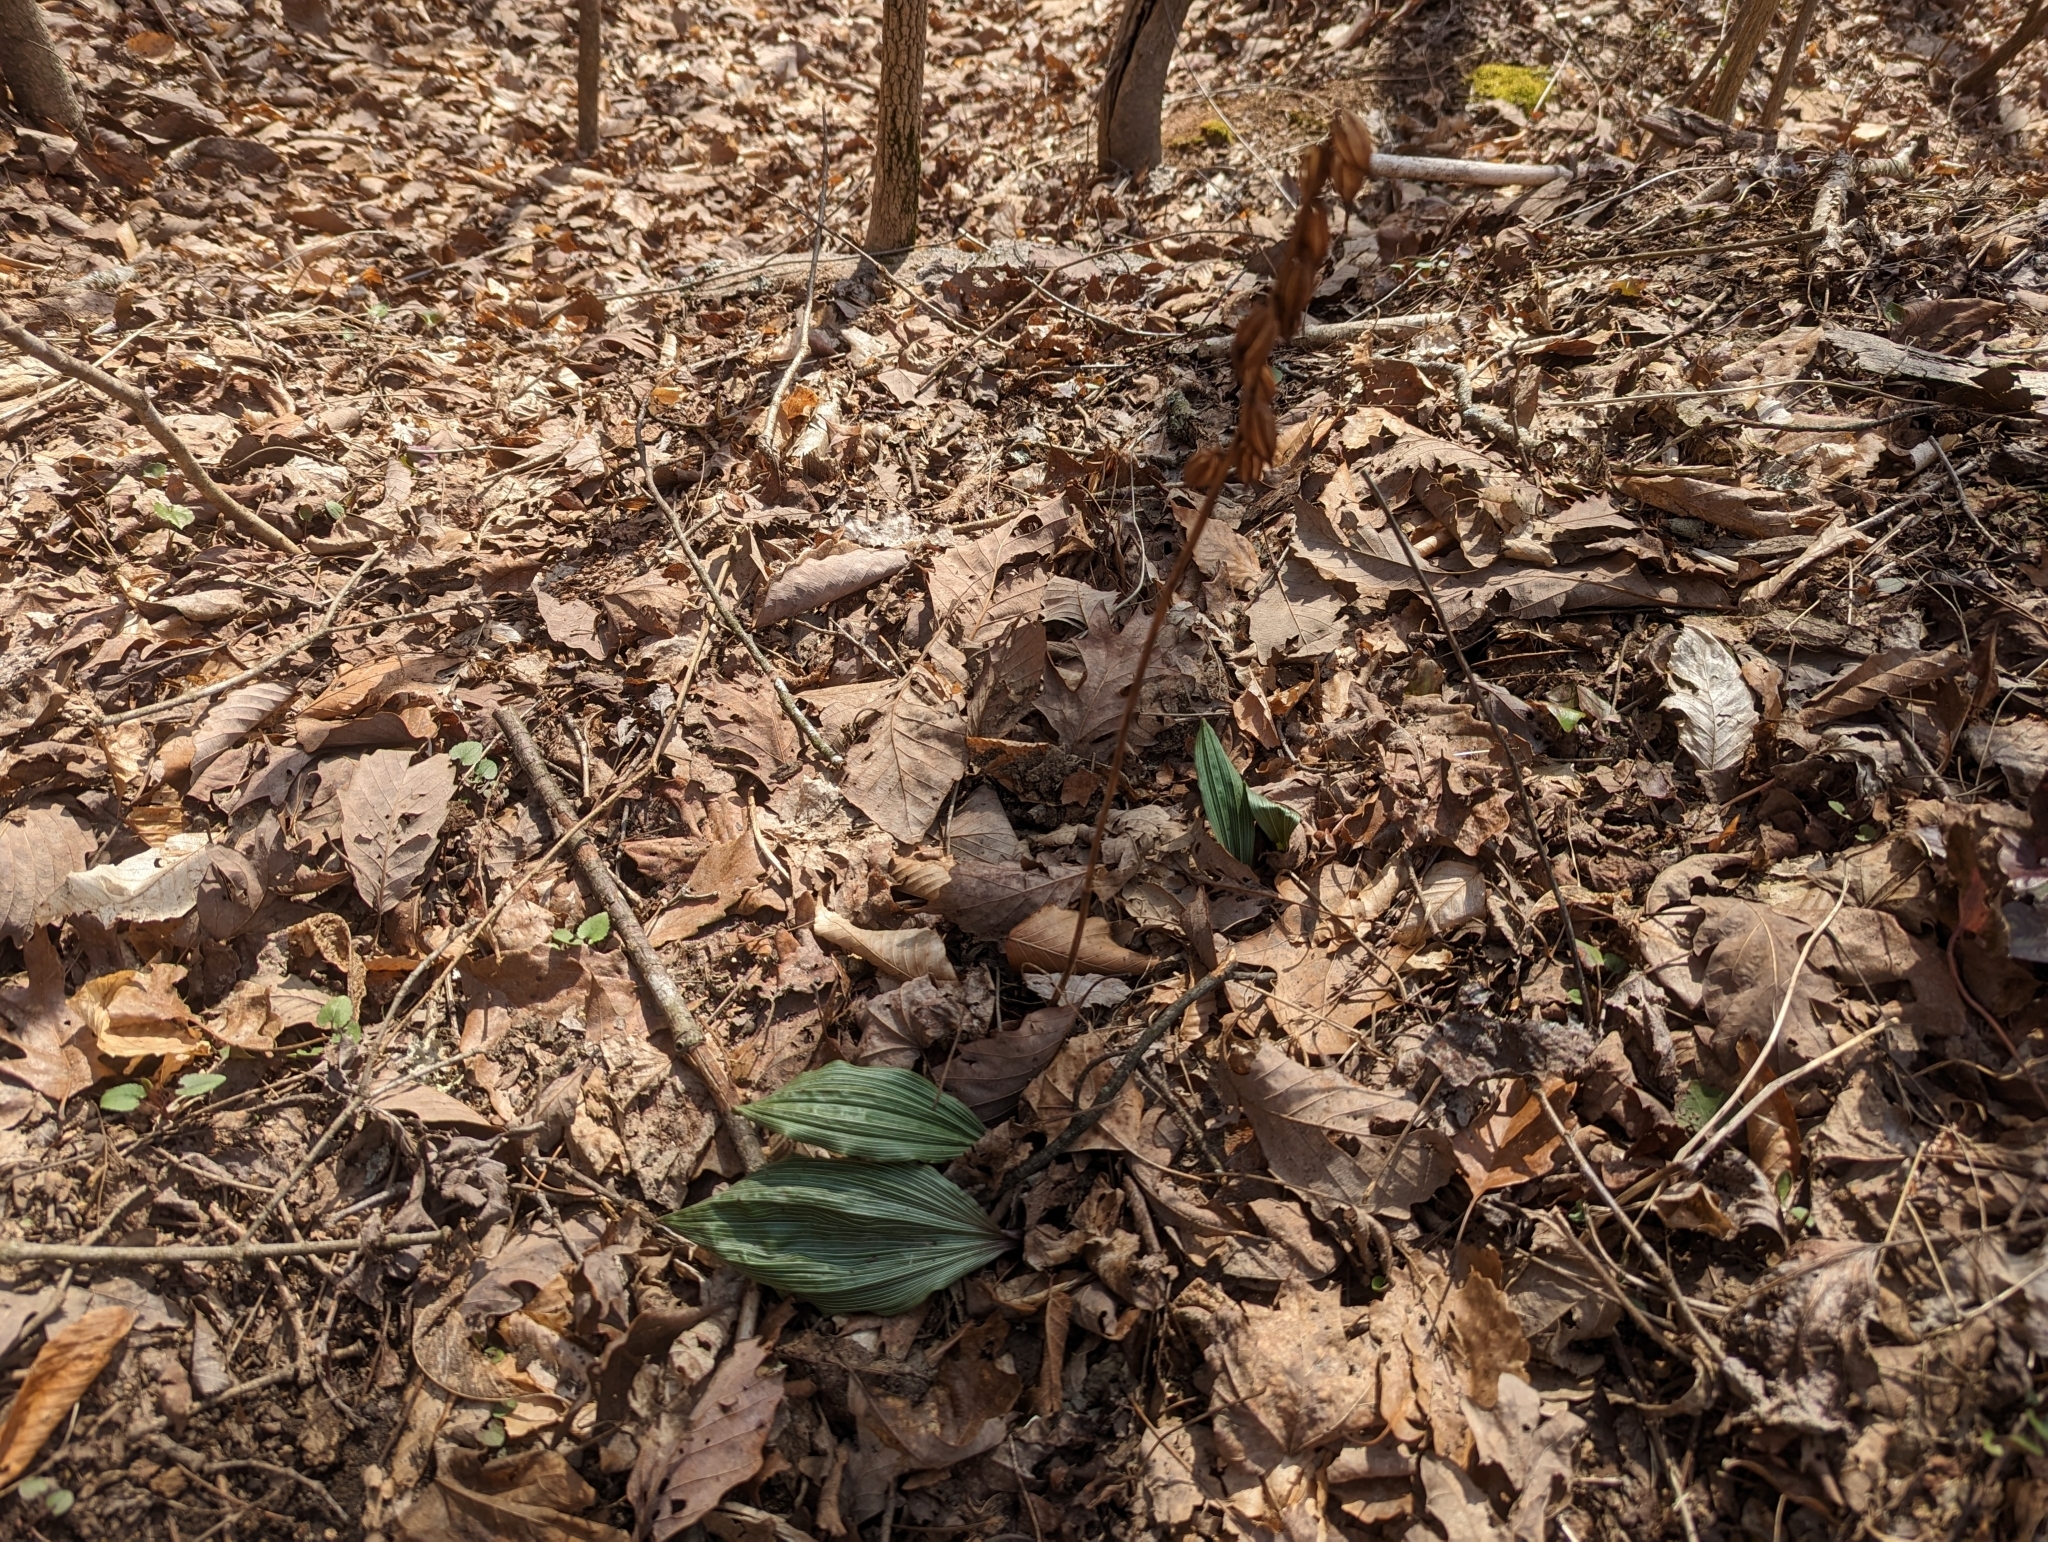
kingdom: Plantae
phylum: Tracheophyta
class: Liliopsida
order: Asparagales
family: Orchidaceae
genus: Aplectrum
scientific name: Aplectrum hyemale
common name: Adam-and-eve
